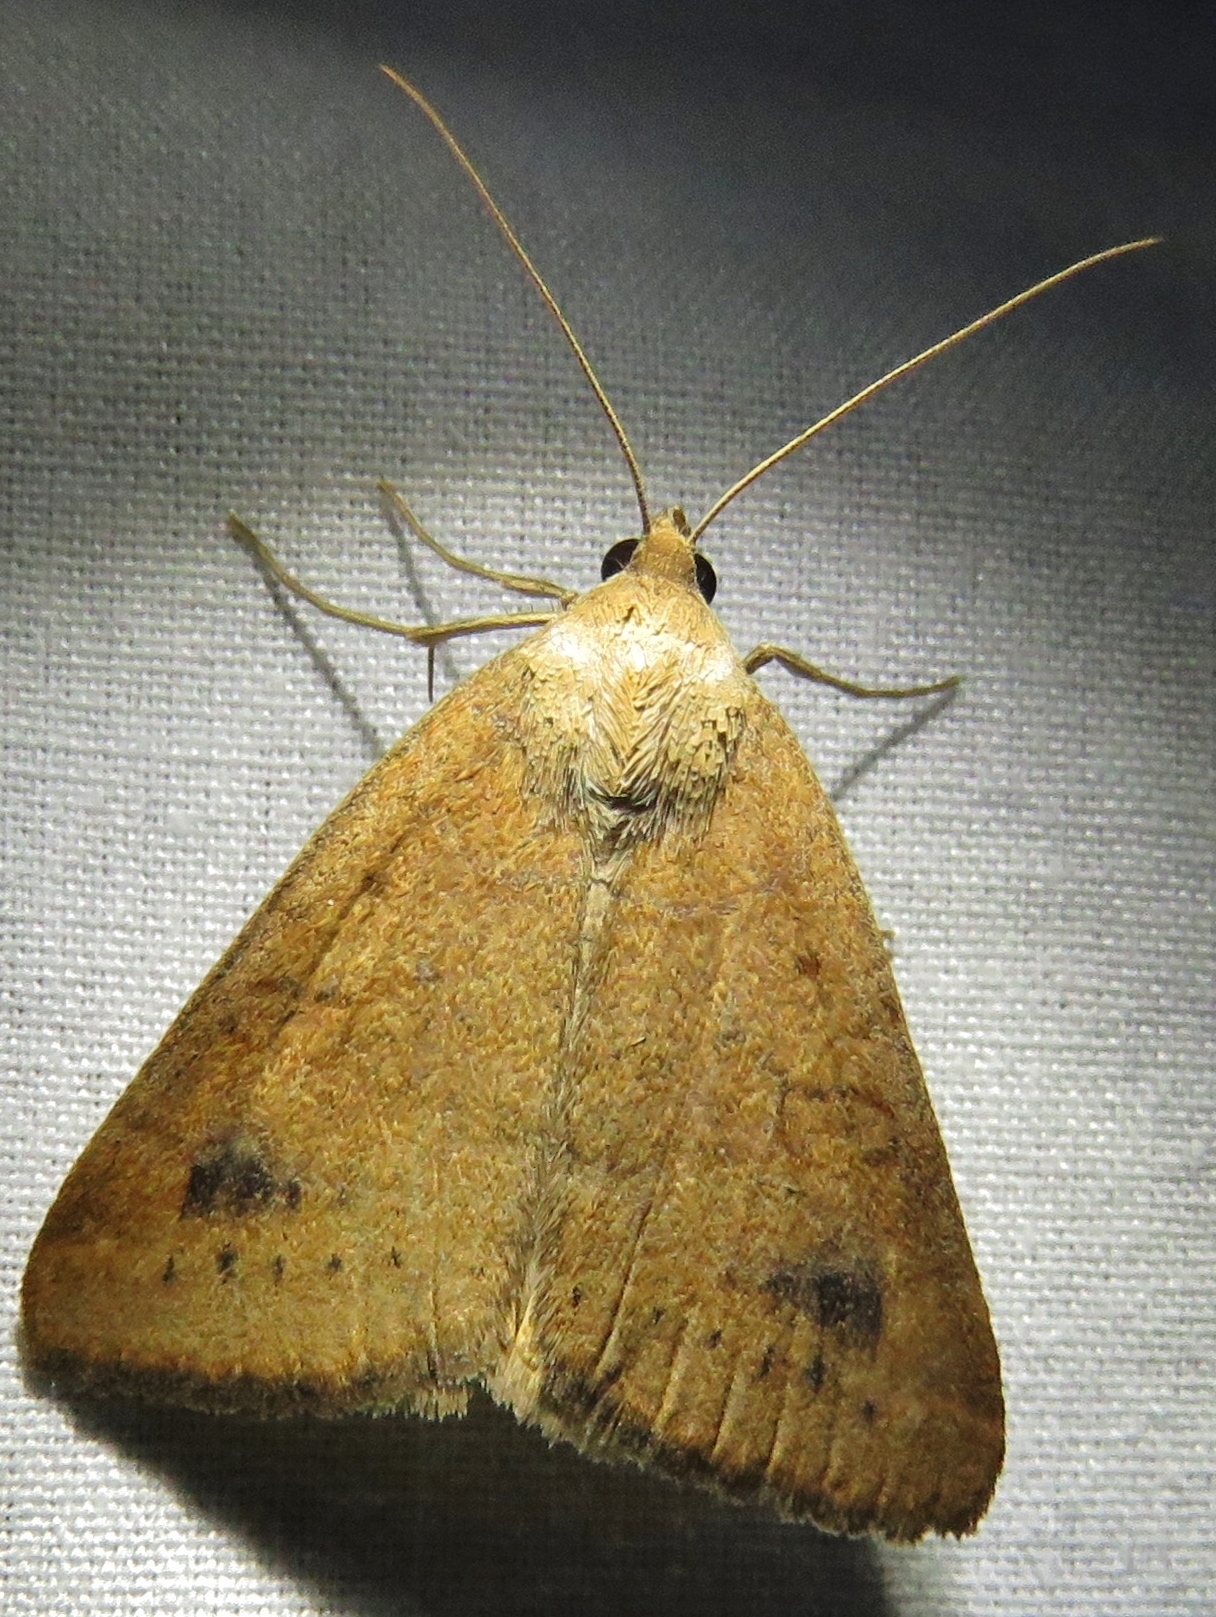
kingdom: Animalia
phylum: Arthropoda
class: Insecta
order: Lepidoptera
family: Erebidae
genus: Caenurgia
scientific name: Caenurgia chloropha
